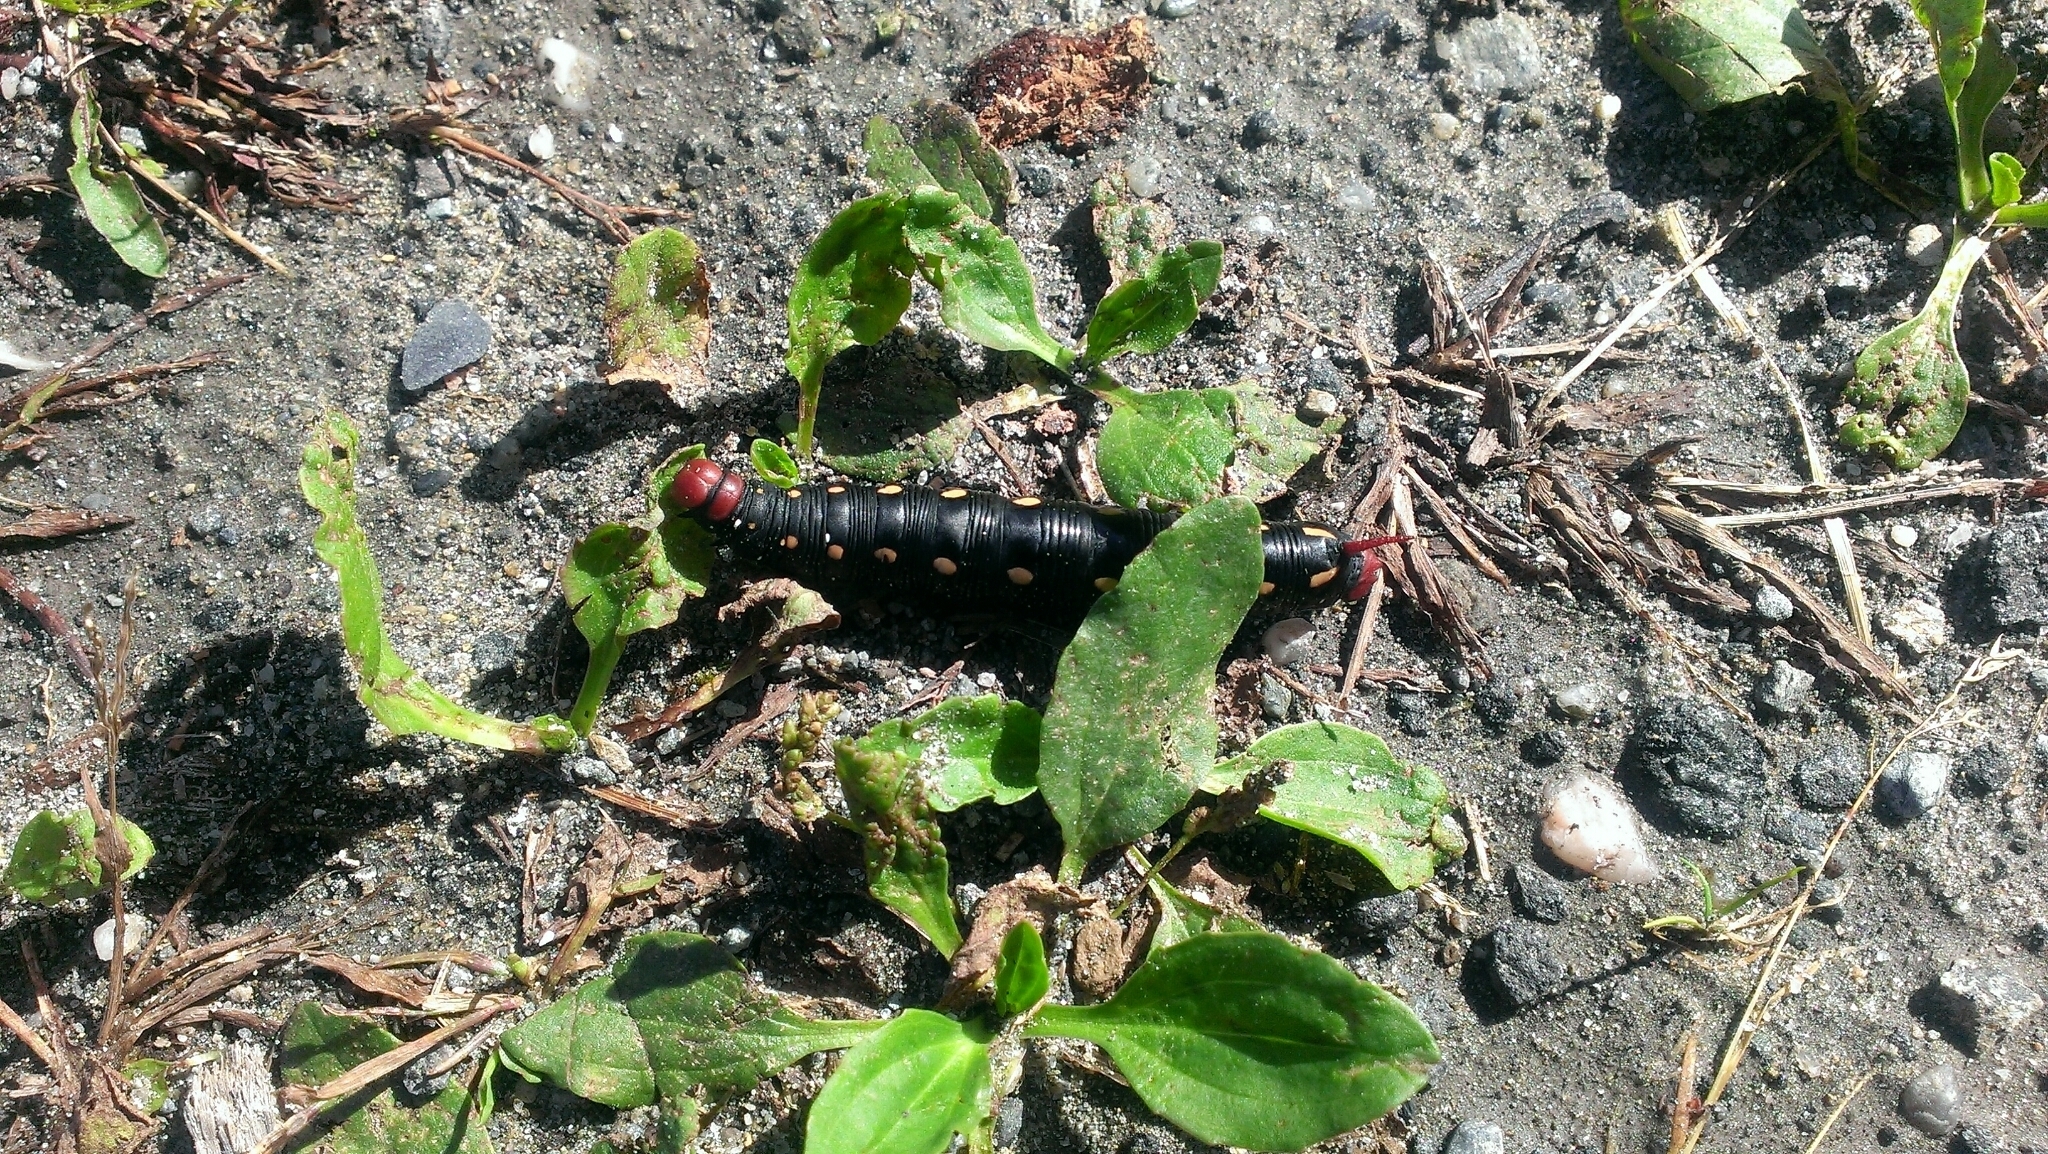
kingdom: Animalia
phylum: Arthropoda
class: Insecta
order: Lepidoptera
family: Sphingidae
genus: Hyles
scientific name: Hyles gallii
